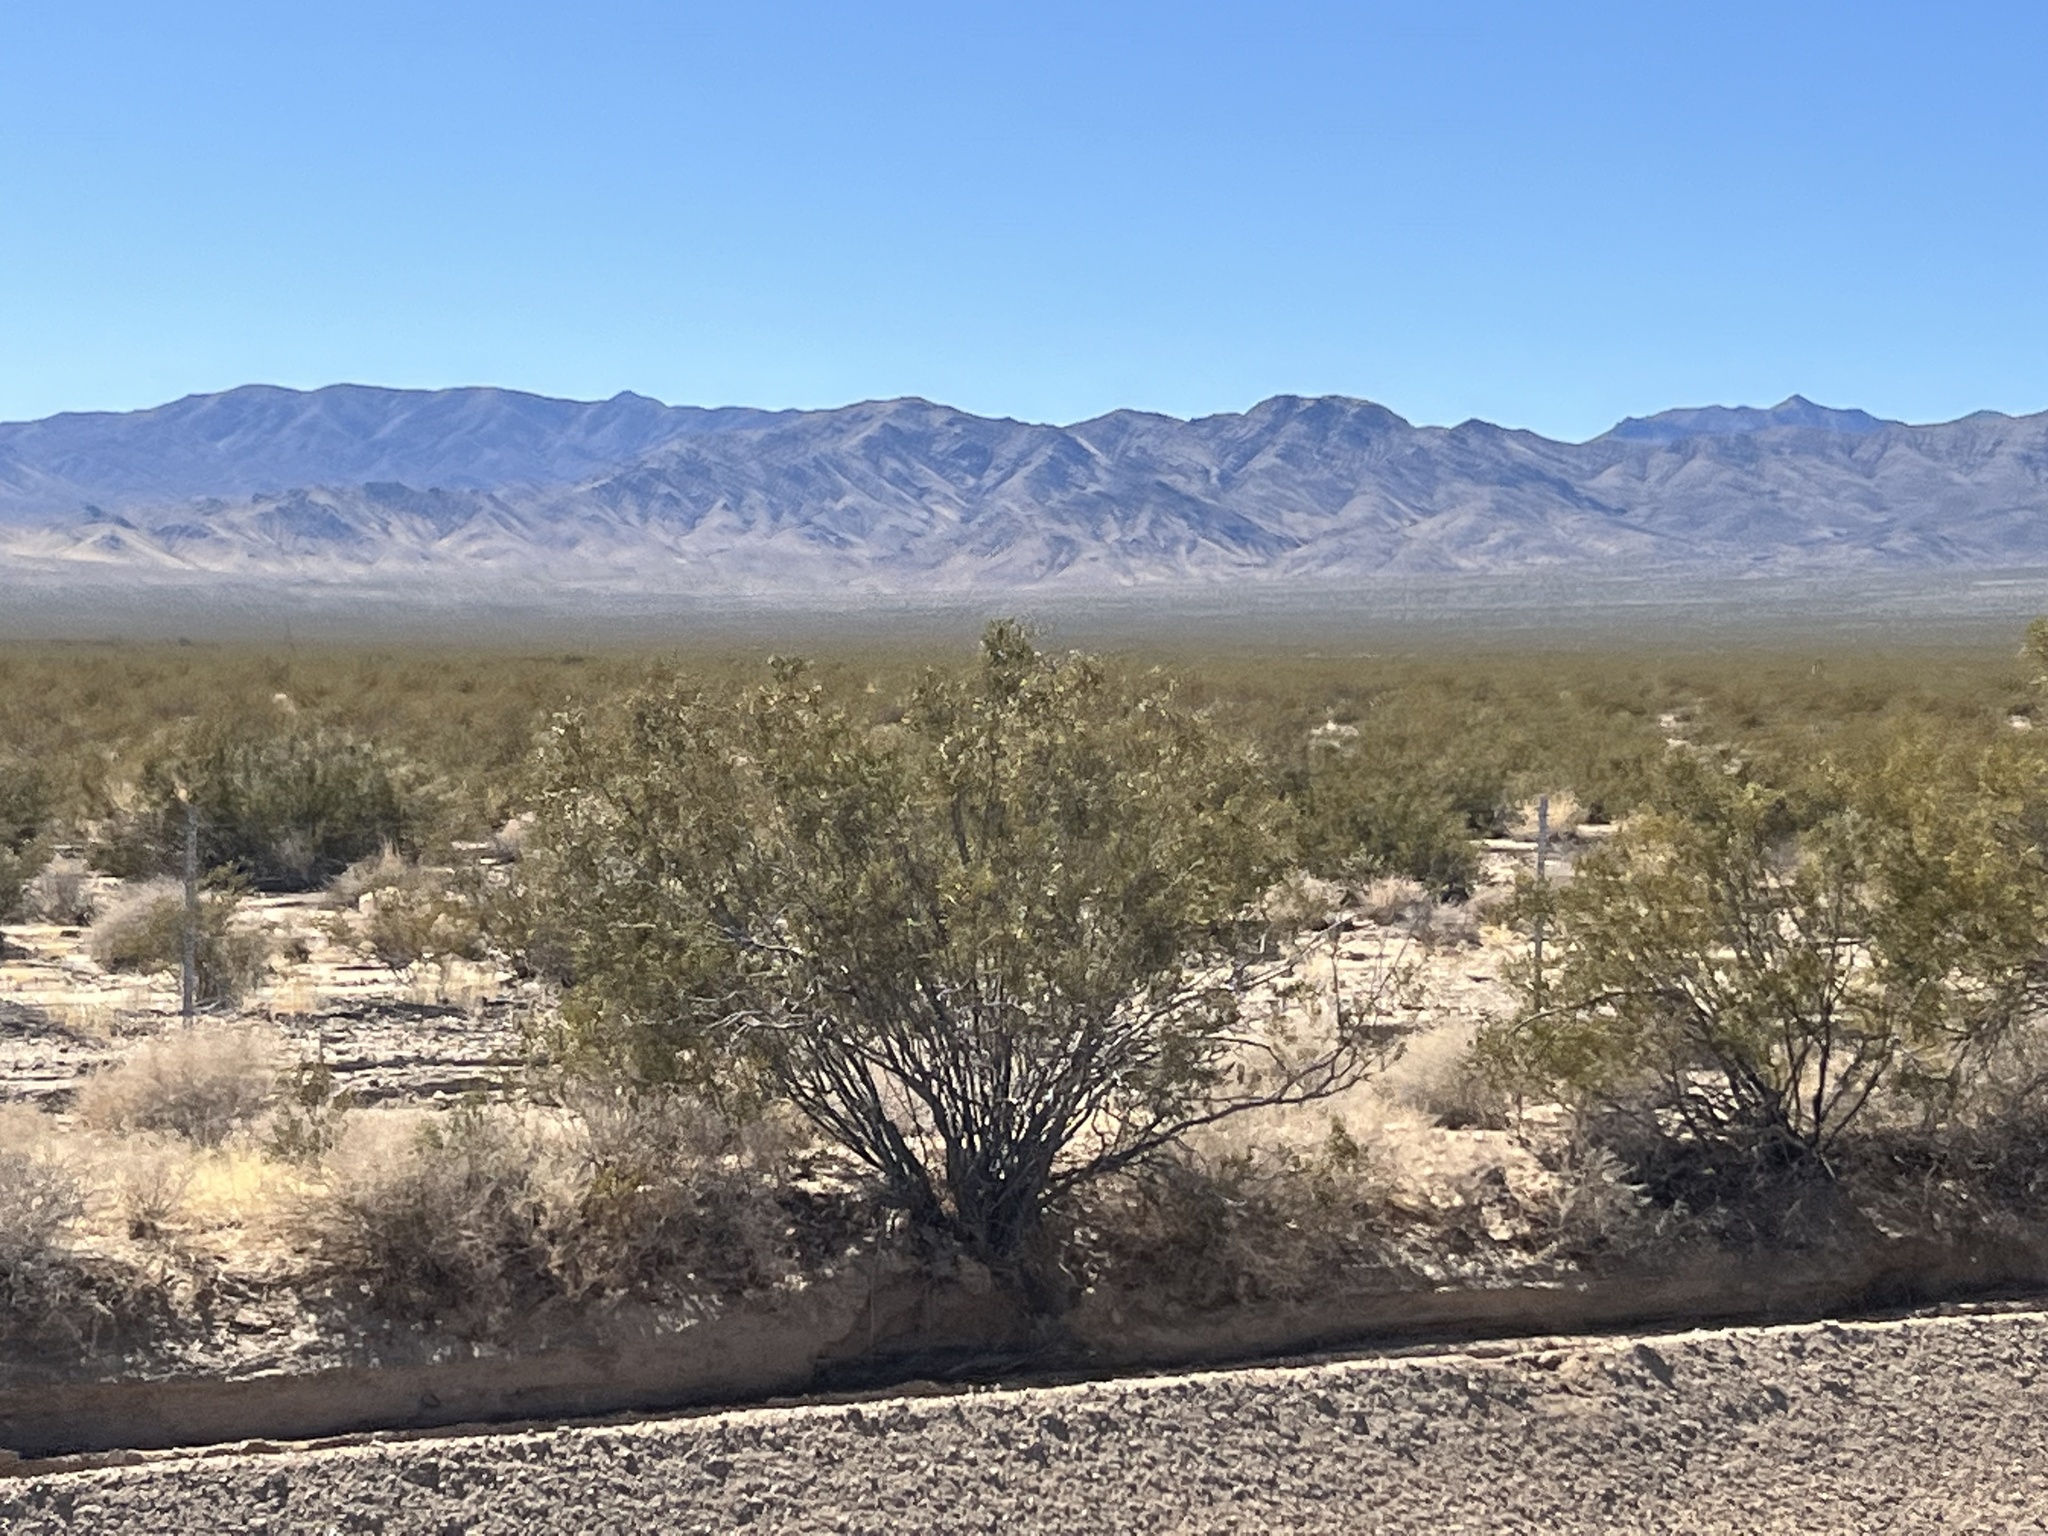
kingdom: Plantae
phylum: Tracheophyta
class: Magnoliopsida
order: Zygophyllales
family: Zygophyllaceae
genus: Larrea
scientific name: Larrea tridentata
